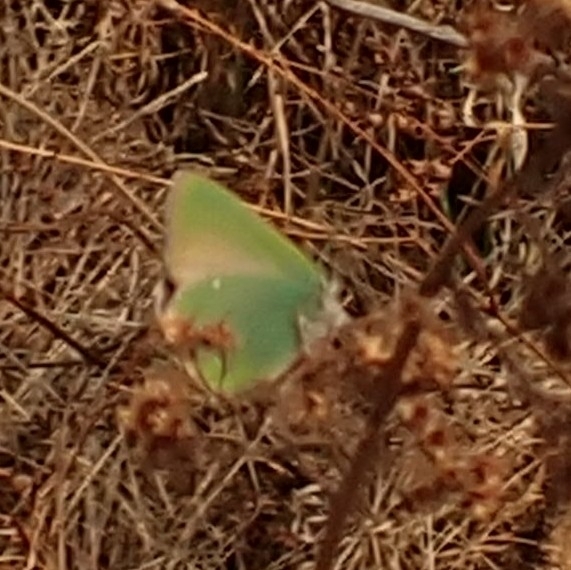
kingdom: Animalia
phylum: Arthropoda
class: Insecta
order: Lepidoptera
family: Lycaenidae
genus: Callophrys
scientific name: Callophrys rubi
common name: Green hairstreak
